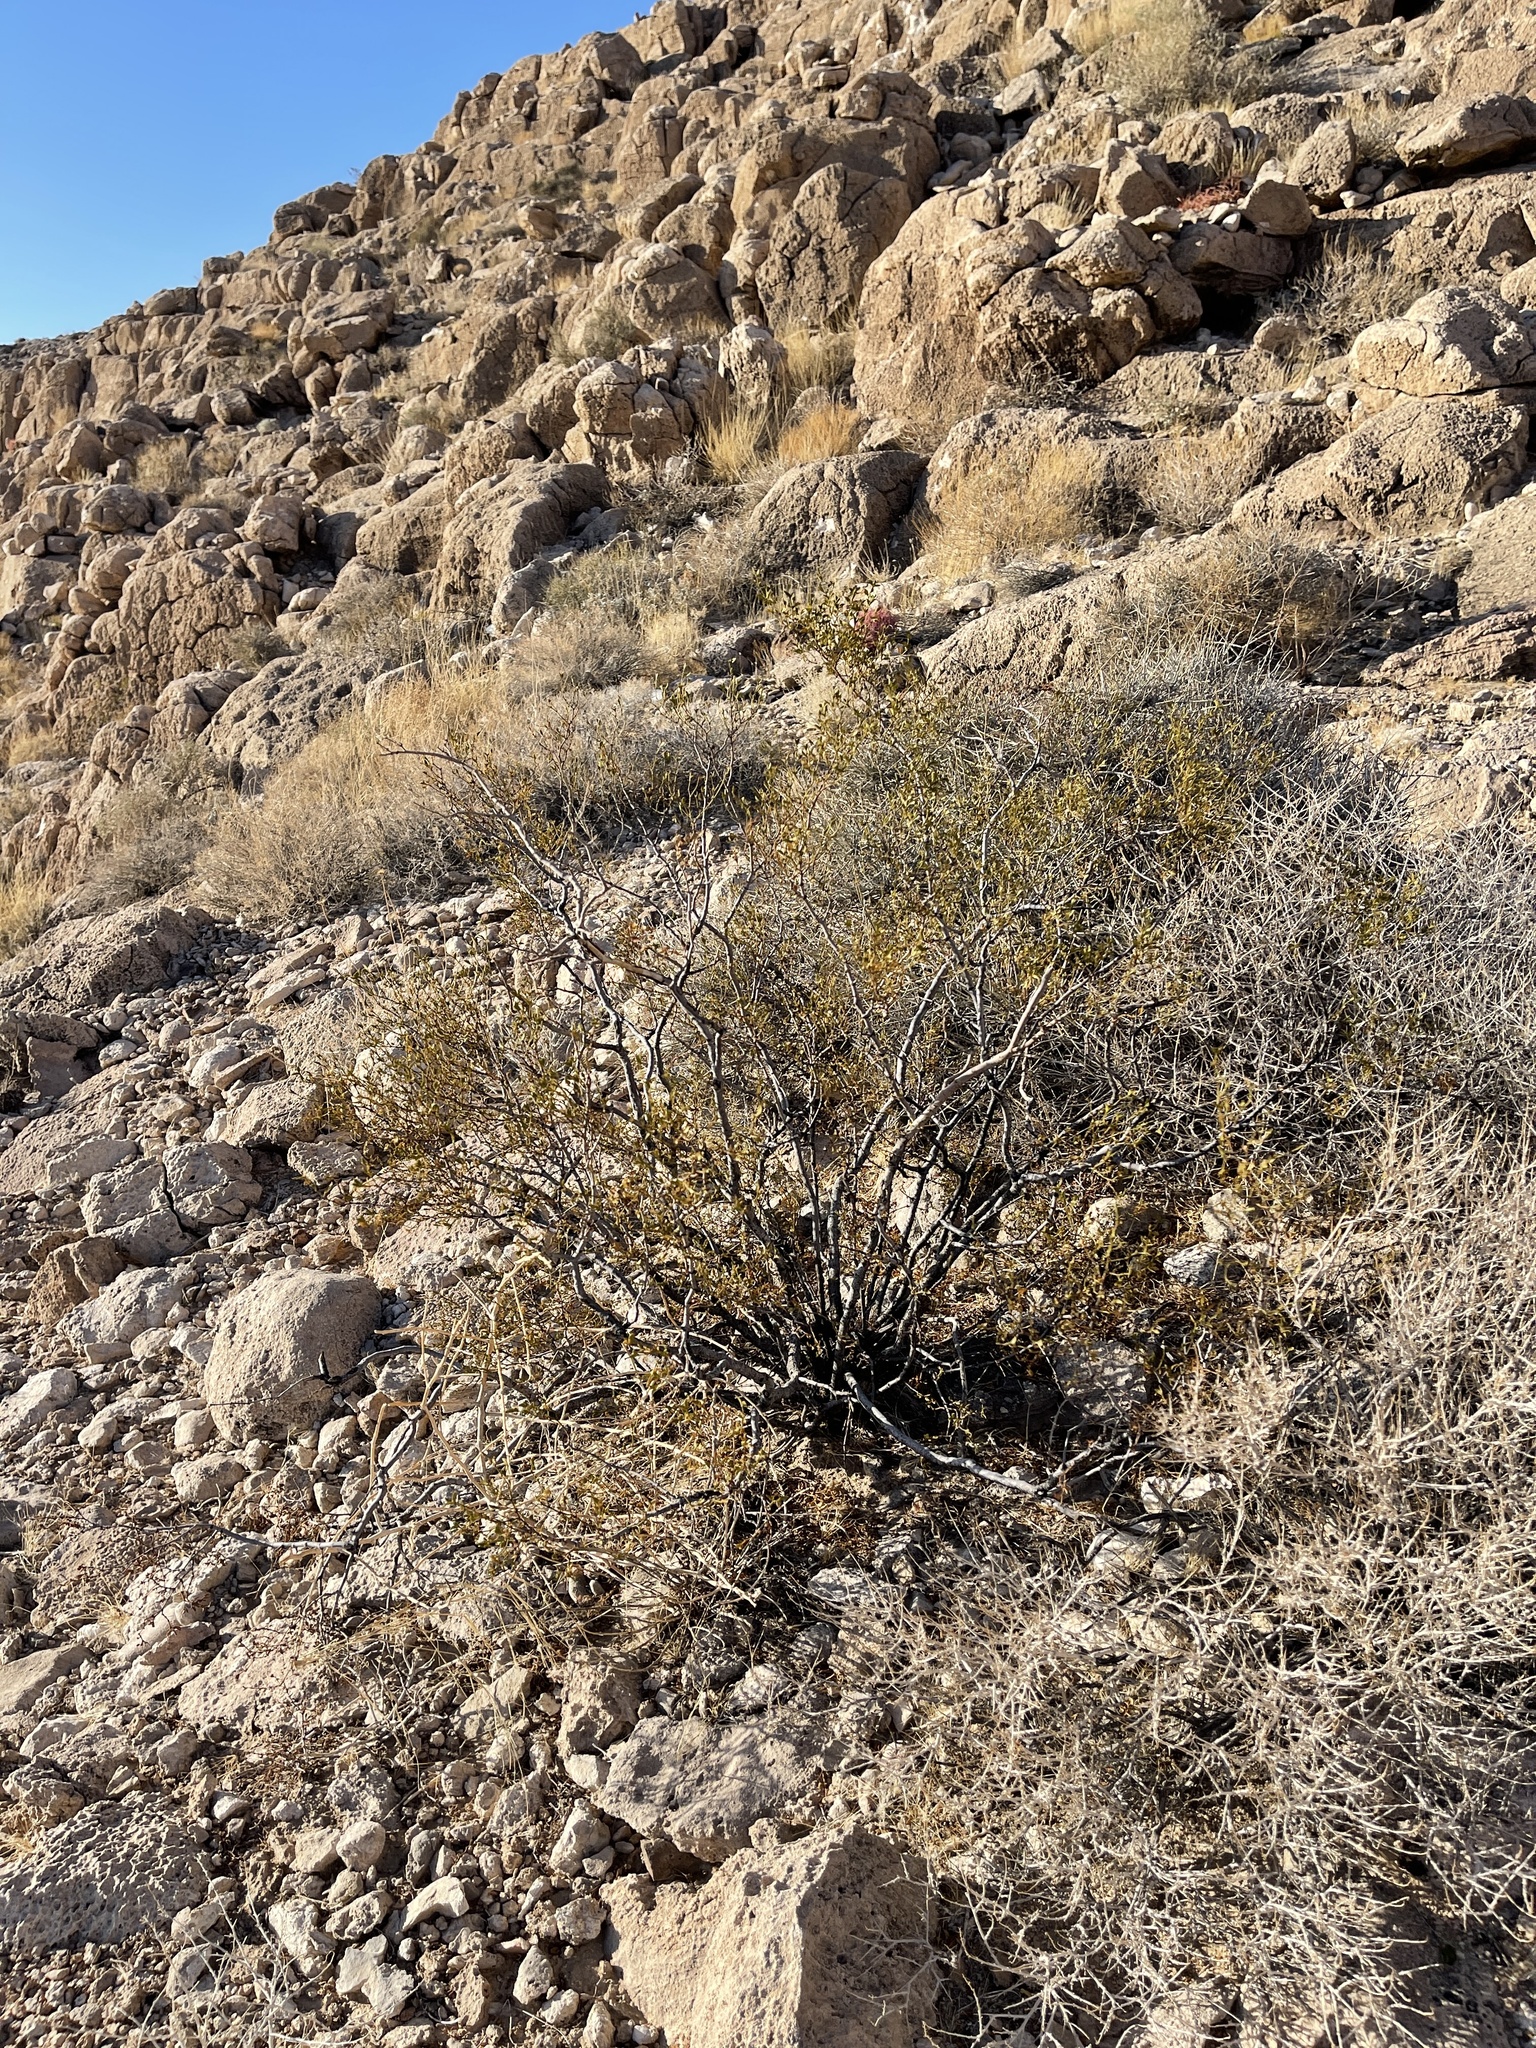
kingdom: Plantae
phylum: Tracheophyta
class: Magnoliopsida
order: Zygophyllales
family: Zygophyllaceae
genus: Larrea
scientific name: Larrea tridentata
